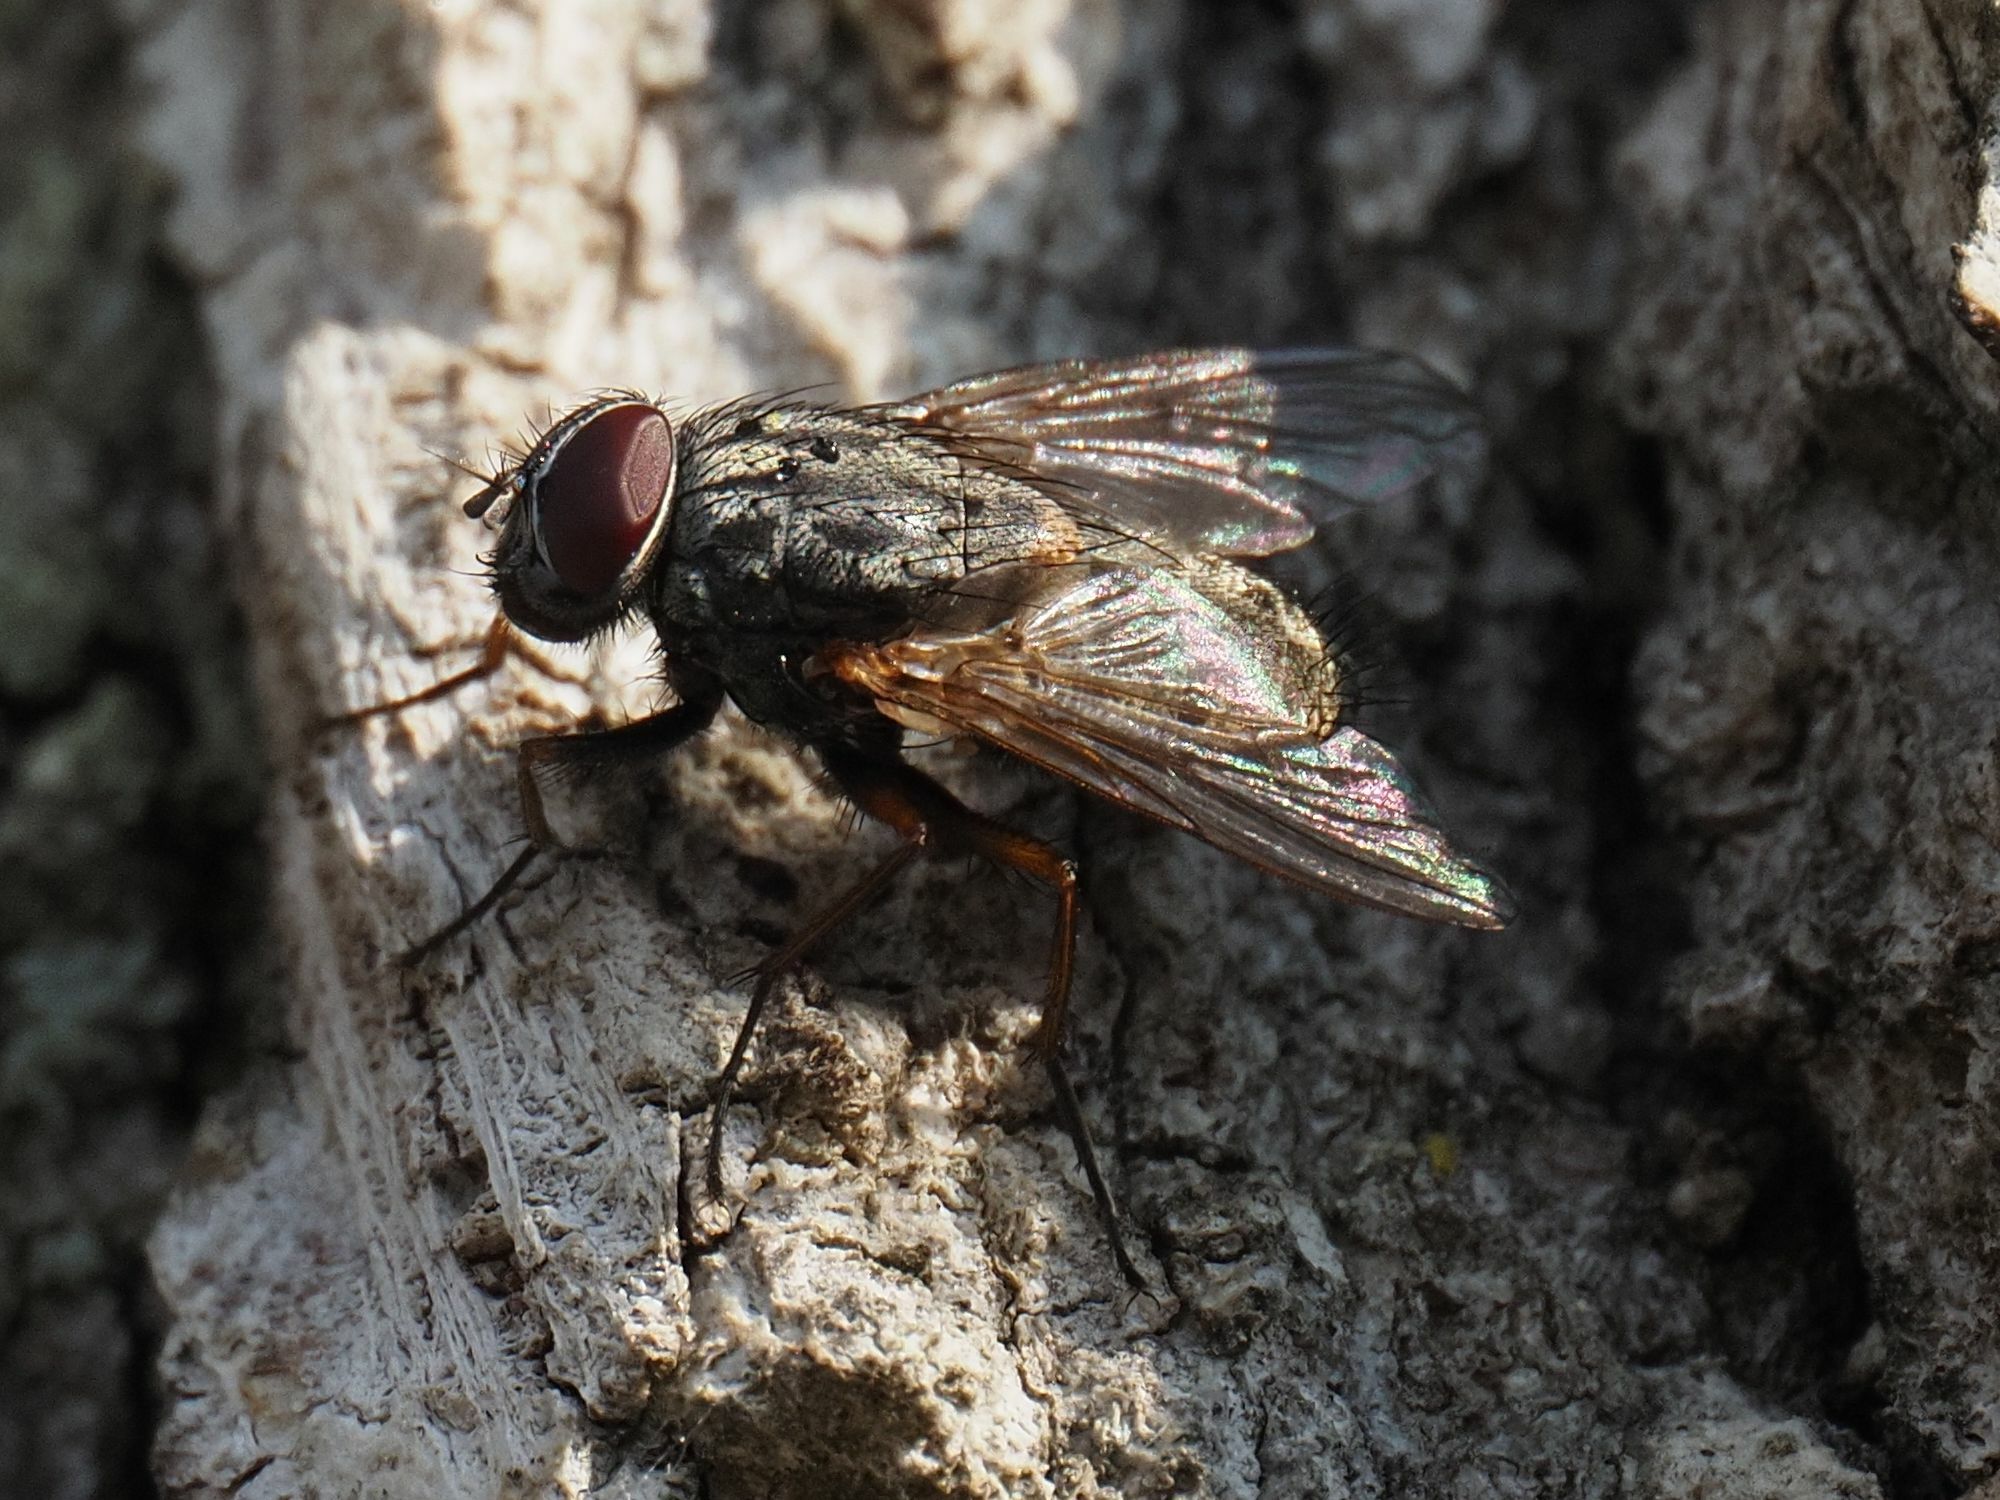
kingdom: Animalia
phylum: Arthropoda
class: Insecta
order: Diptera
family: Muscidae
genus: Muscina
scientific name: Muscina stabulans
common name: False stable fly
